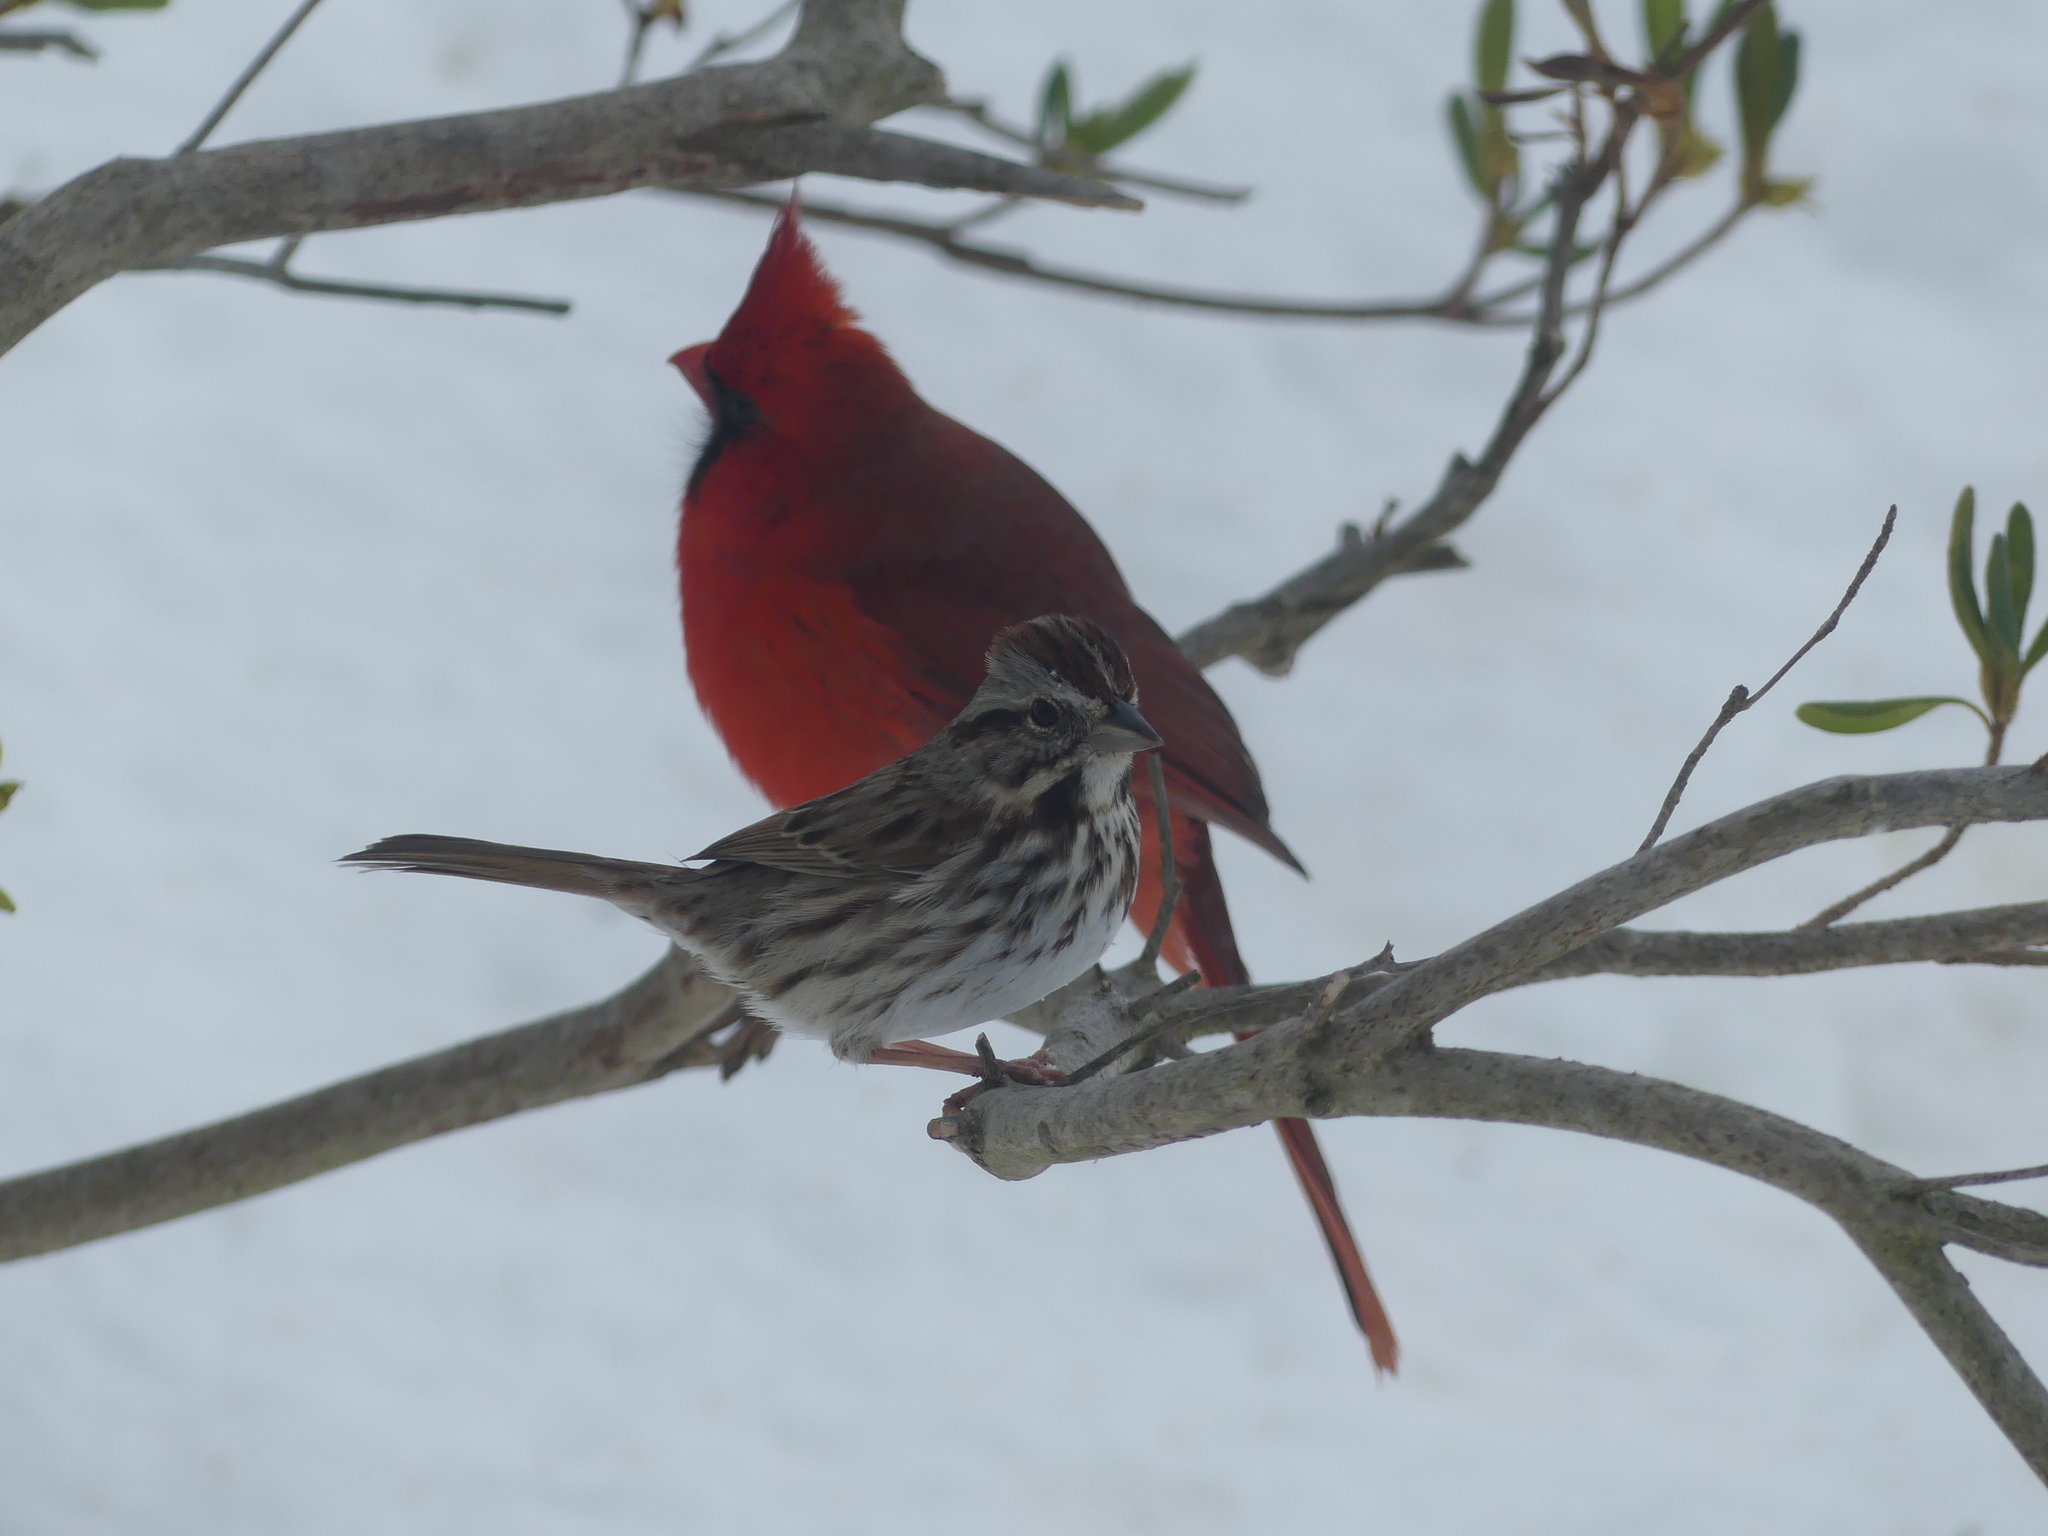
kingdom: Animalia
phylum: Chordata
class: Aves
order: Passeriformes
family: Passerellidae
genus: Melospiza
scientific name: Melospiza melodia
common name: Song sparrow
